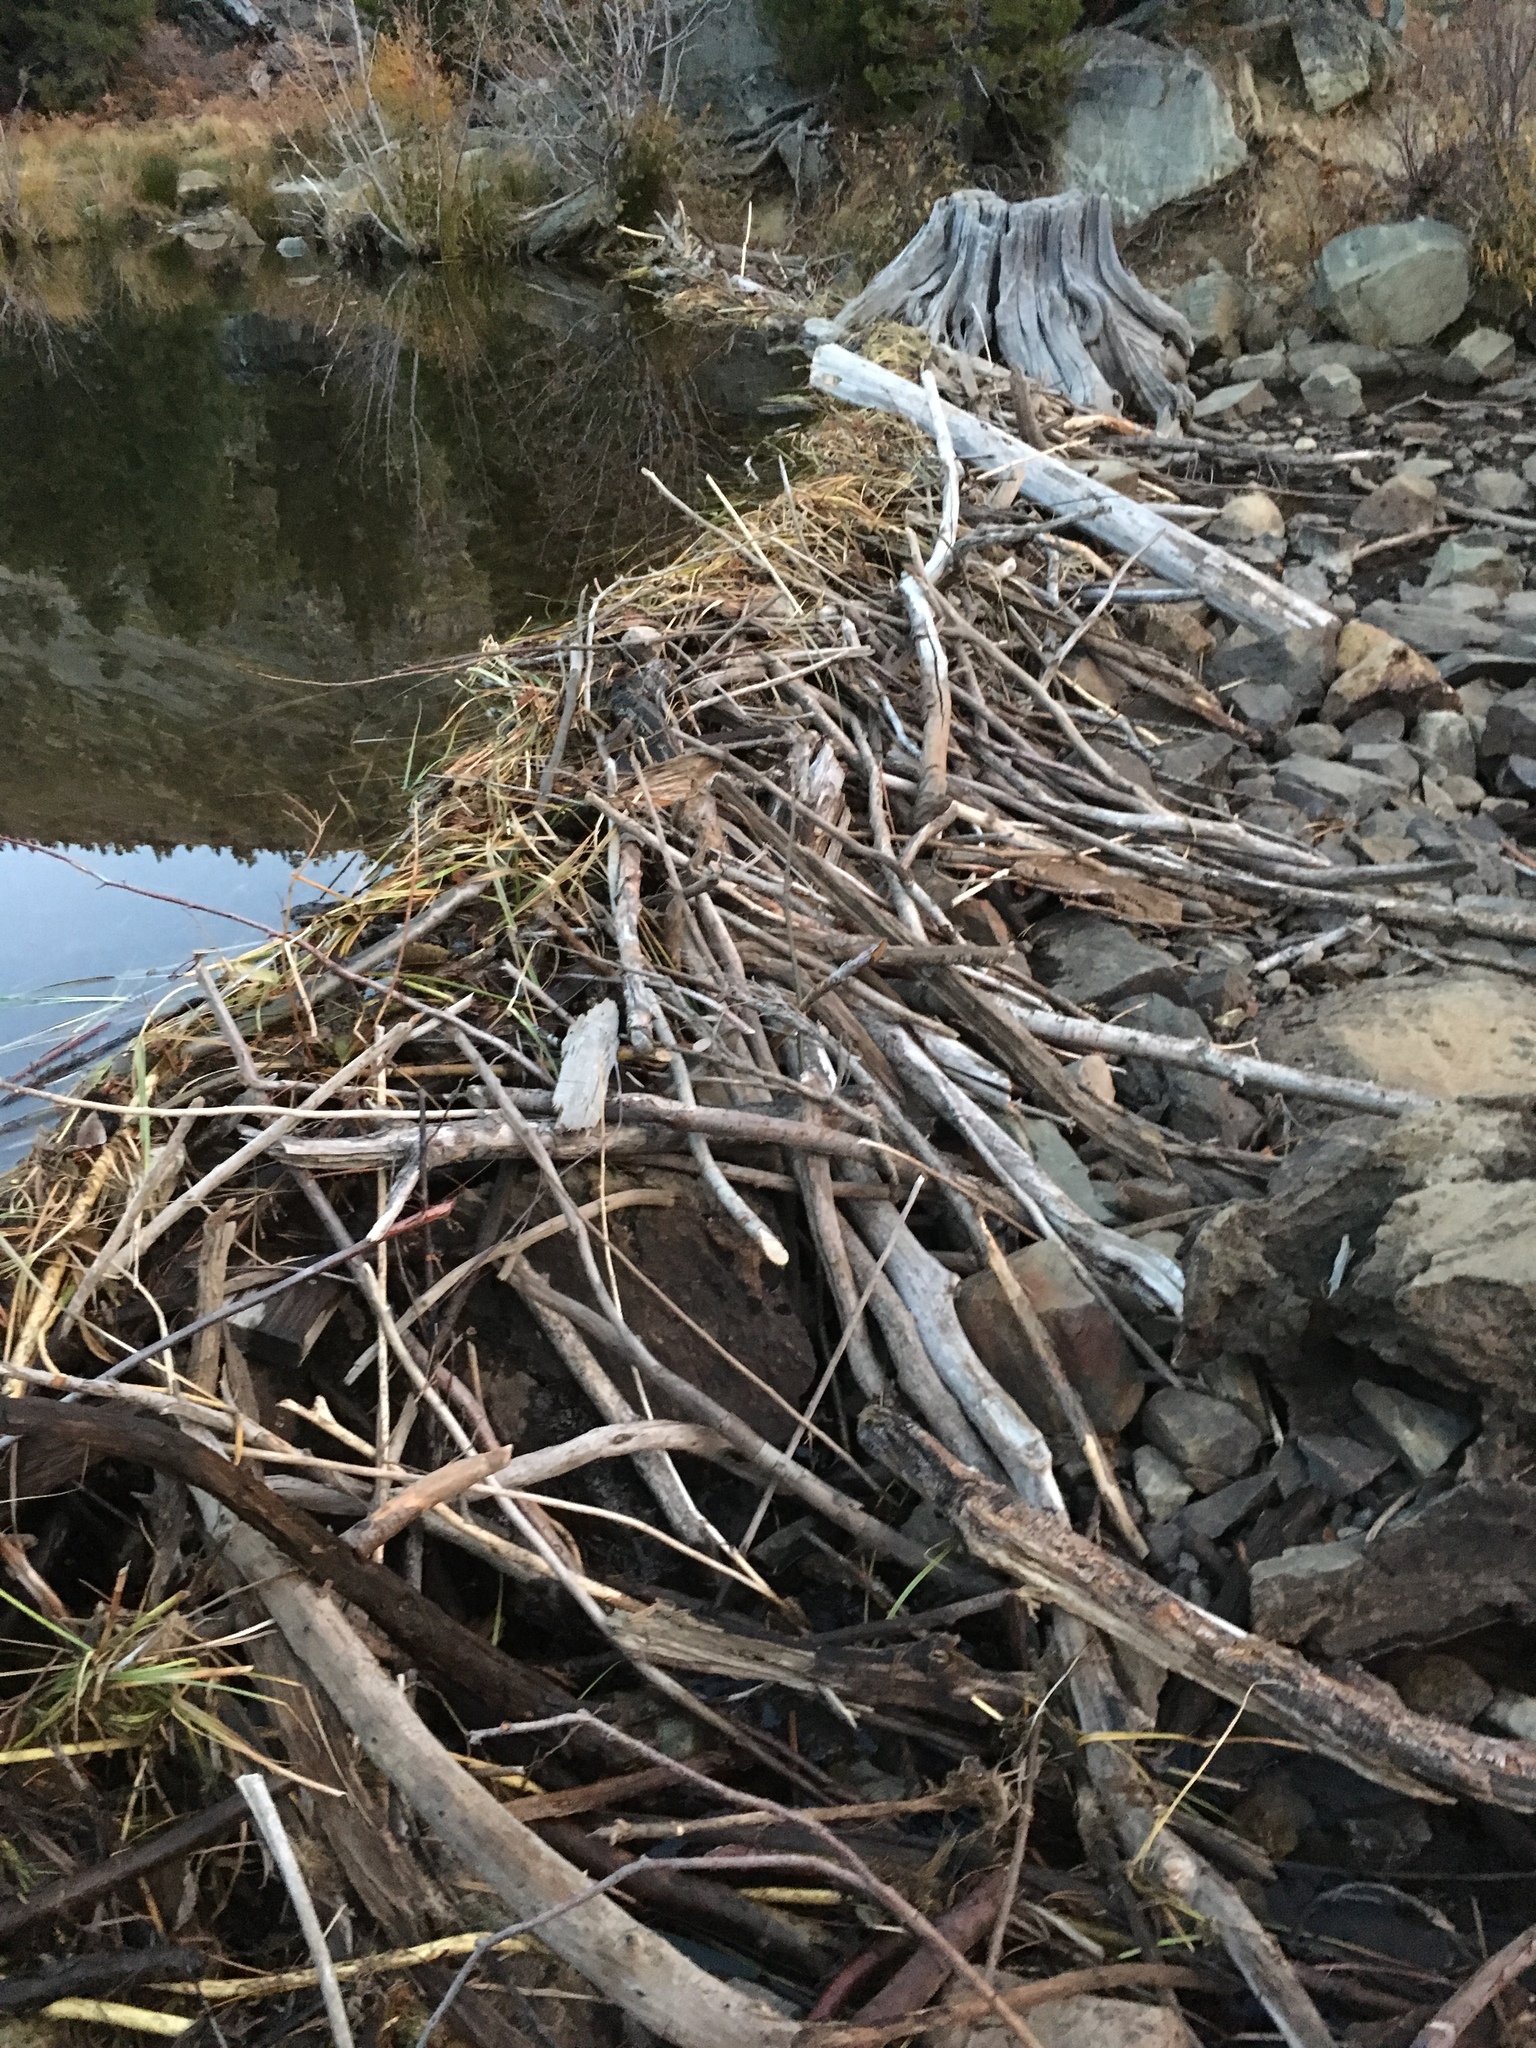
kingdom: Animalia
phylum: Chordata
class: Mammalia
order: Rodentia
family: Castoridae
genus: Castor
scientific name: Castor canadensis
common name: American beaver
